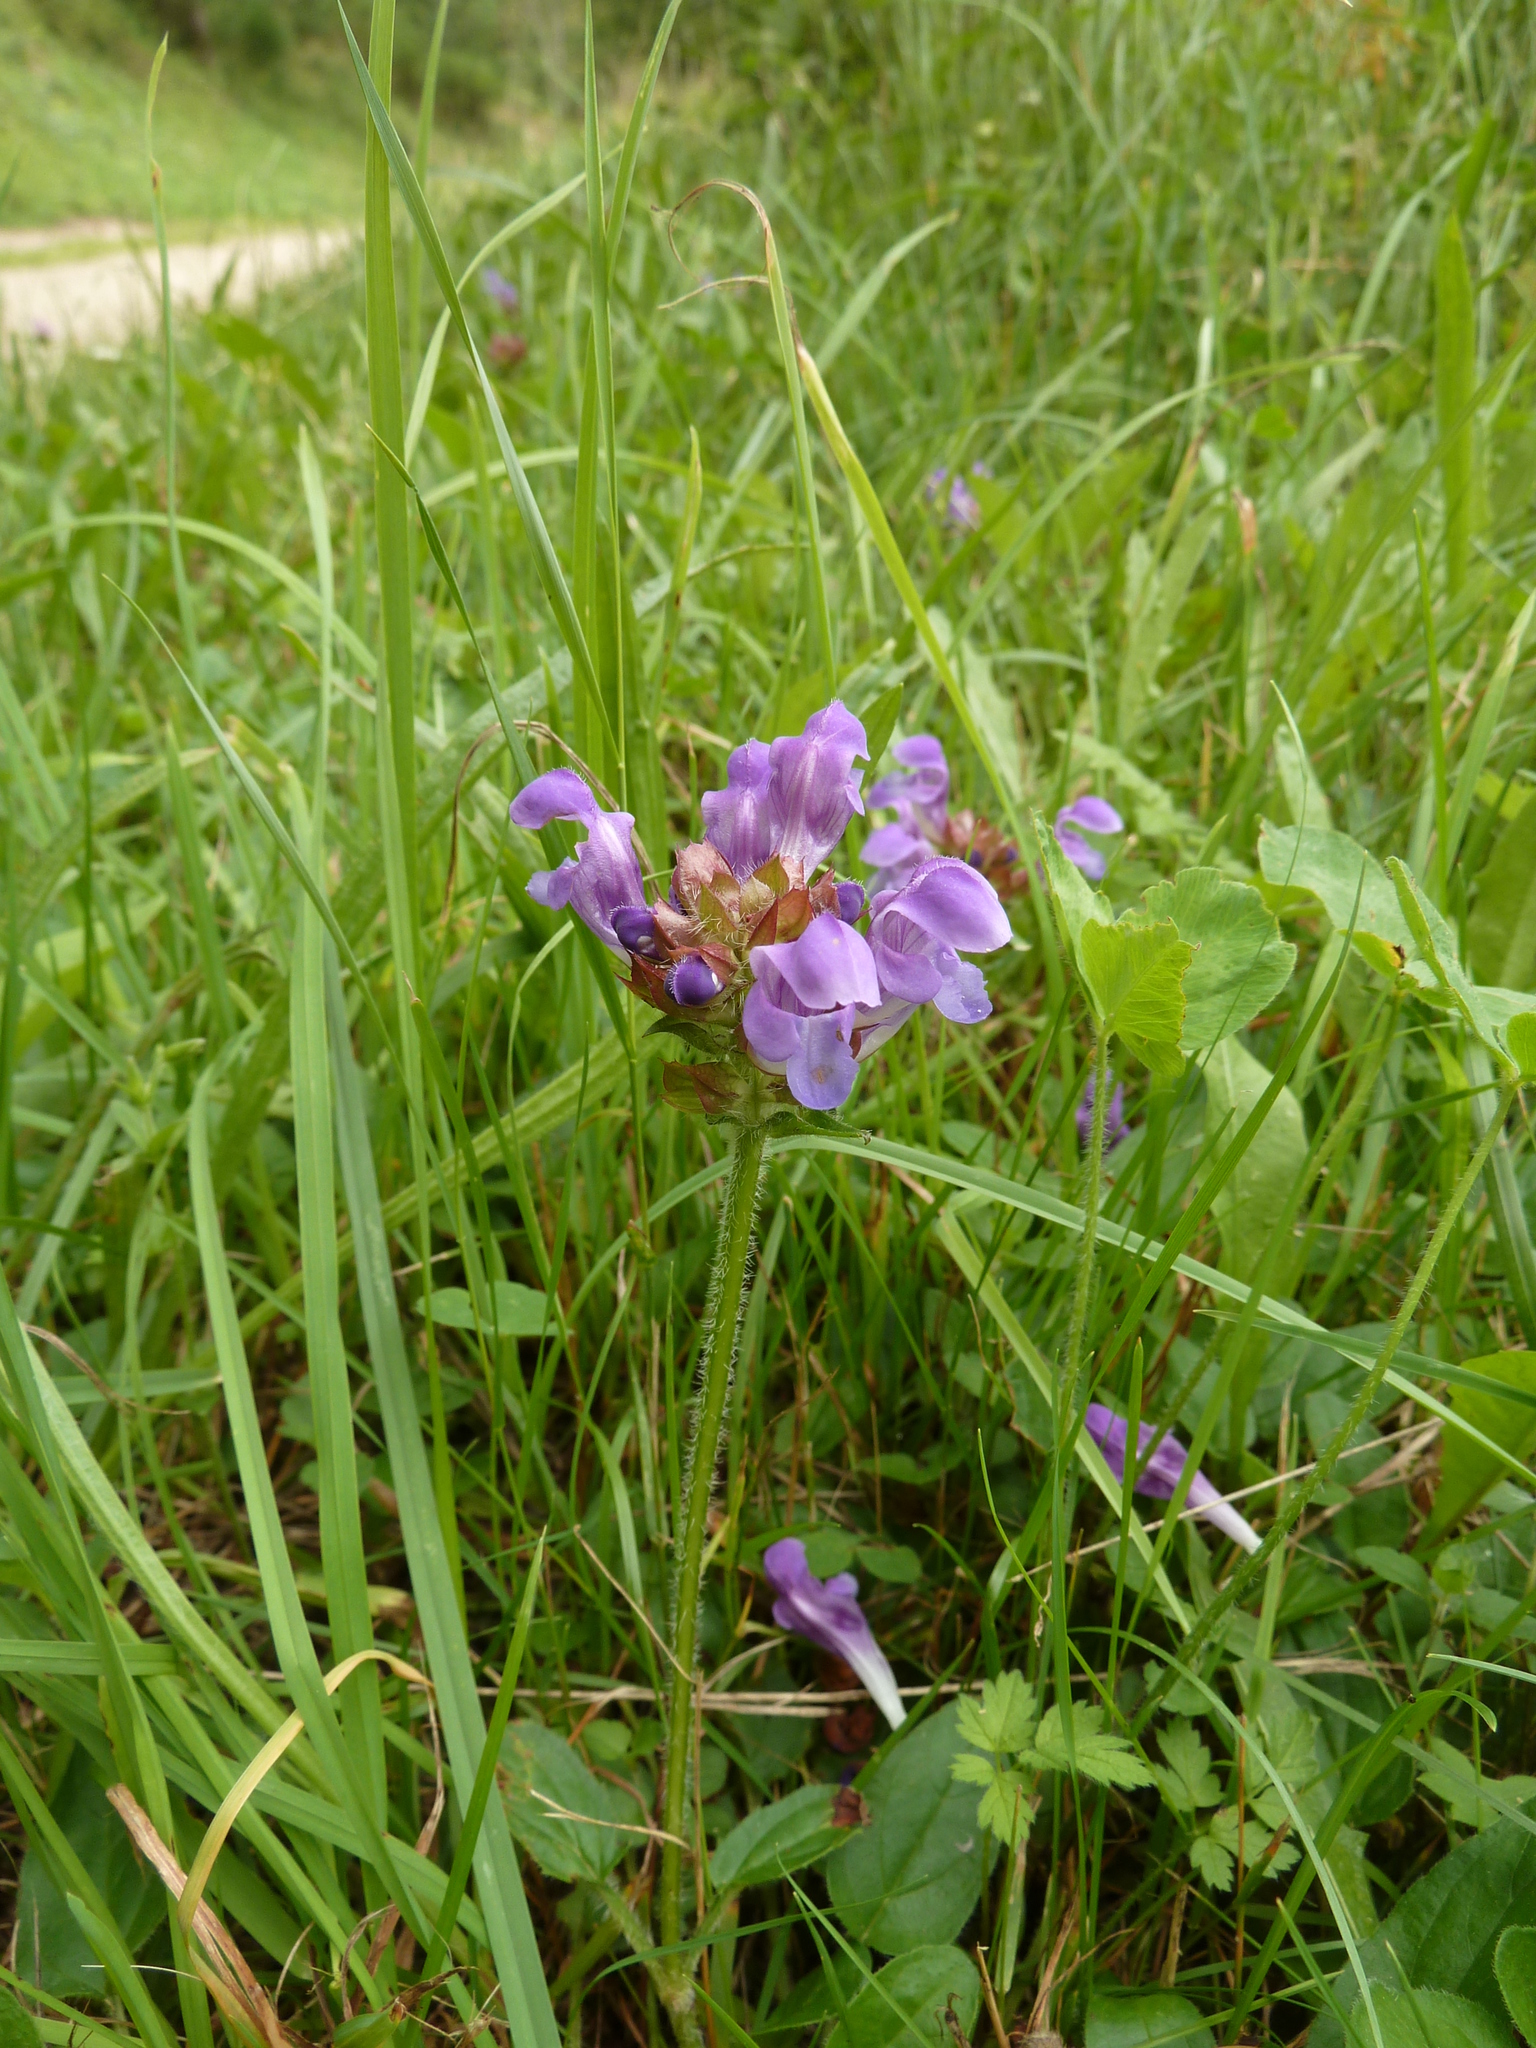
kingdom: Plantae
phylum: Tracheophyta
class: Magnoliopsida
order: Lamiales
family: Lamiaceae
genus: Prunella
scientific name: Prunella grandiflora
